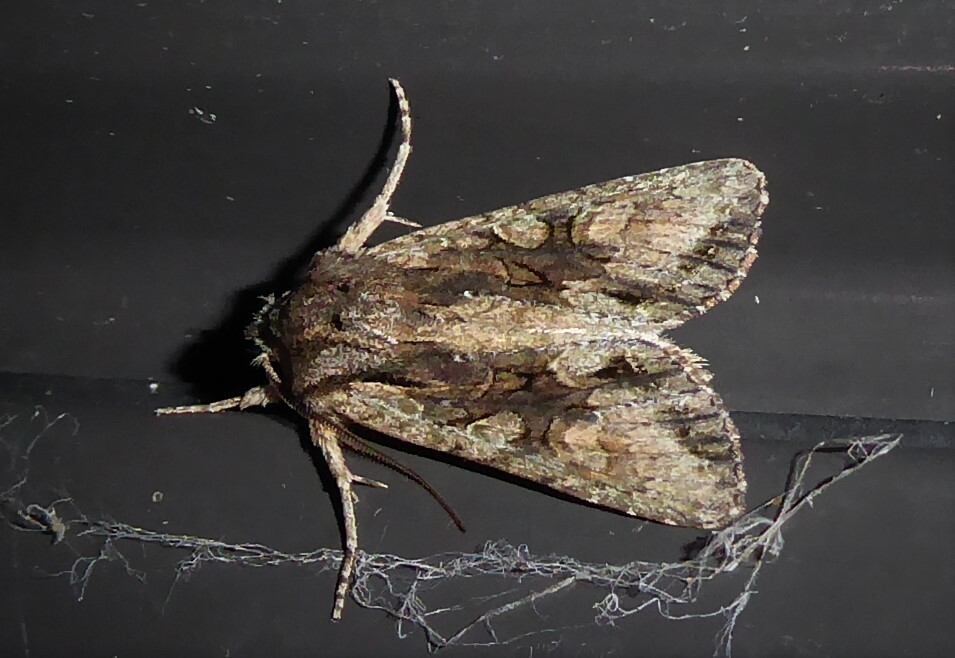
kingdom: Animalia
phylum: Arthropoda
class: Insecta
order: Lepidoptera
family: Noctuidae
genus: Ichneutica
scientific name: Ichneutica mutans
